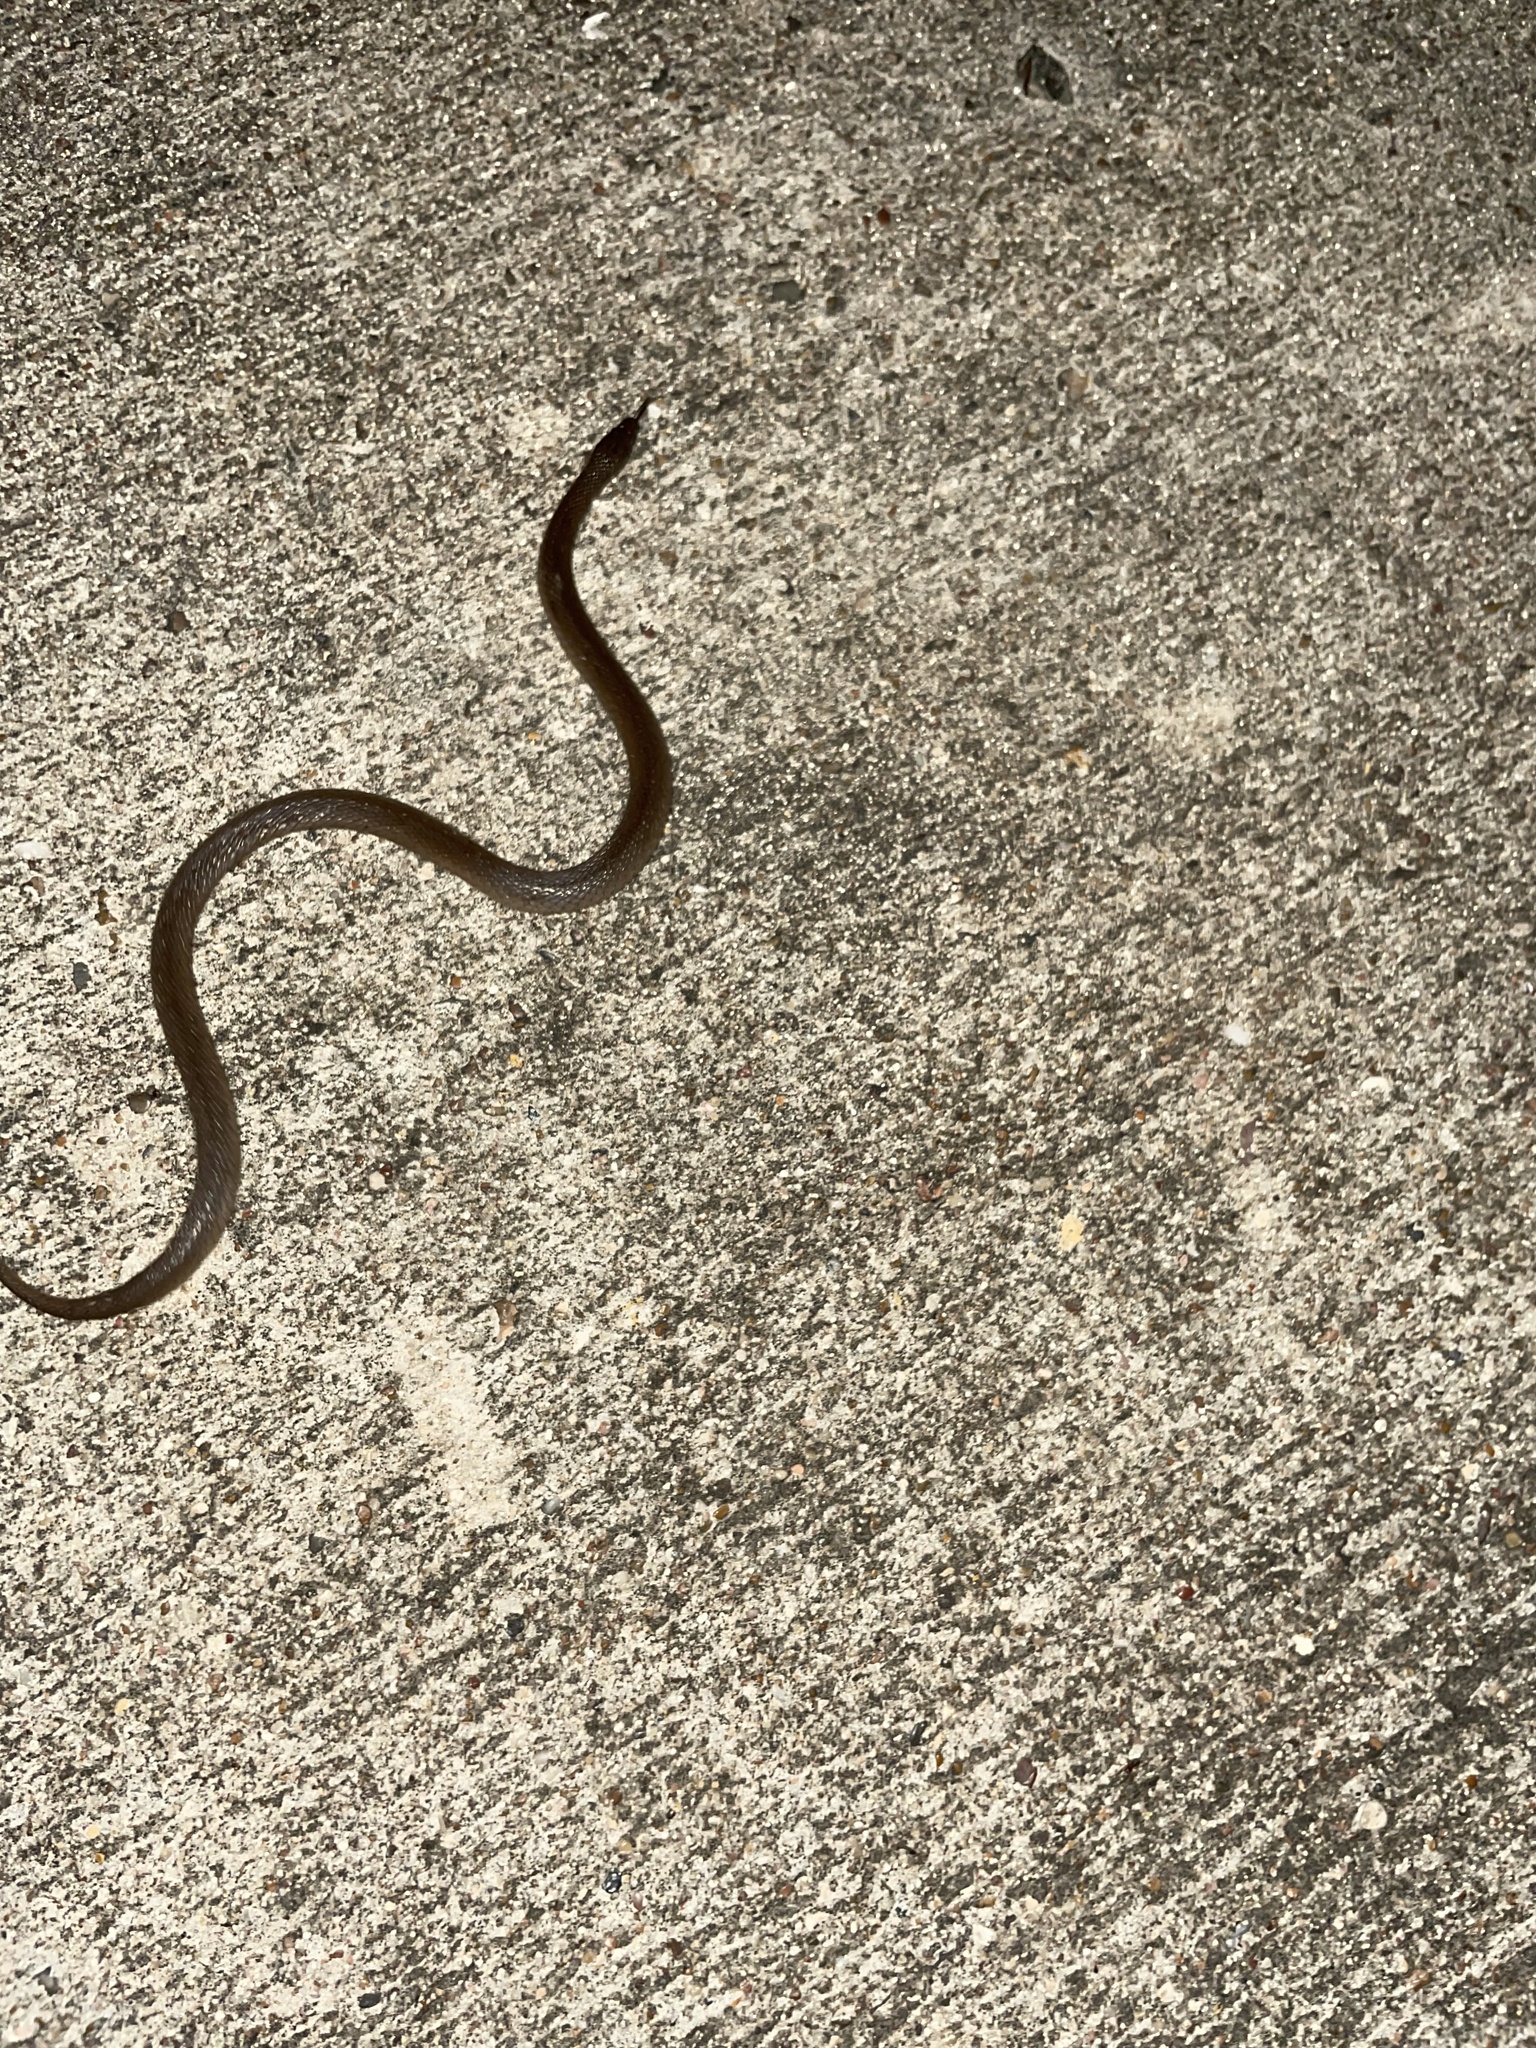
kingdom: Animalia
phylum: Chordata
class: Squamata
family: Colubridae
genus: Haldea
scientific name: Haldea striatula
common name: Rough earth snake
